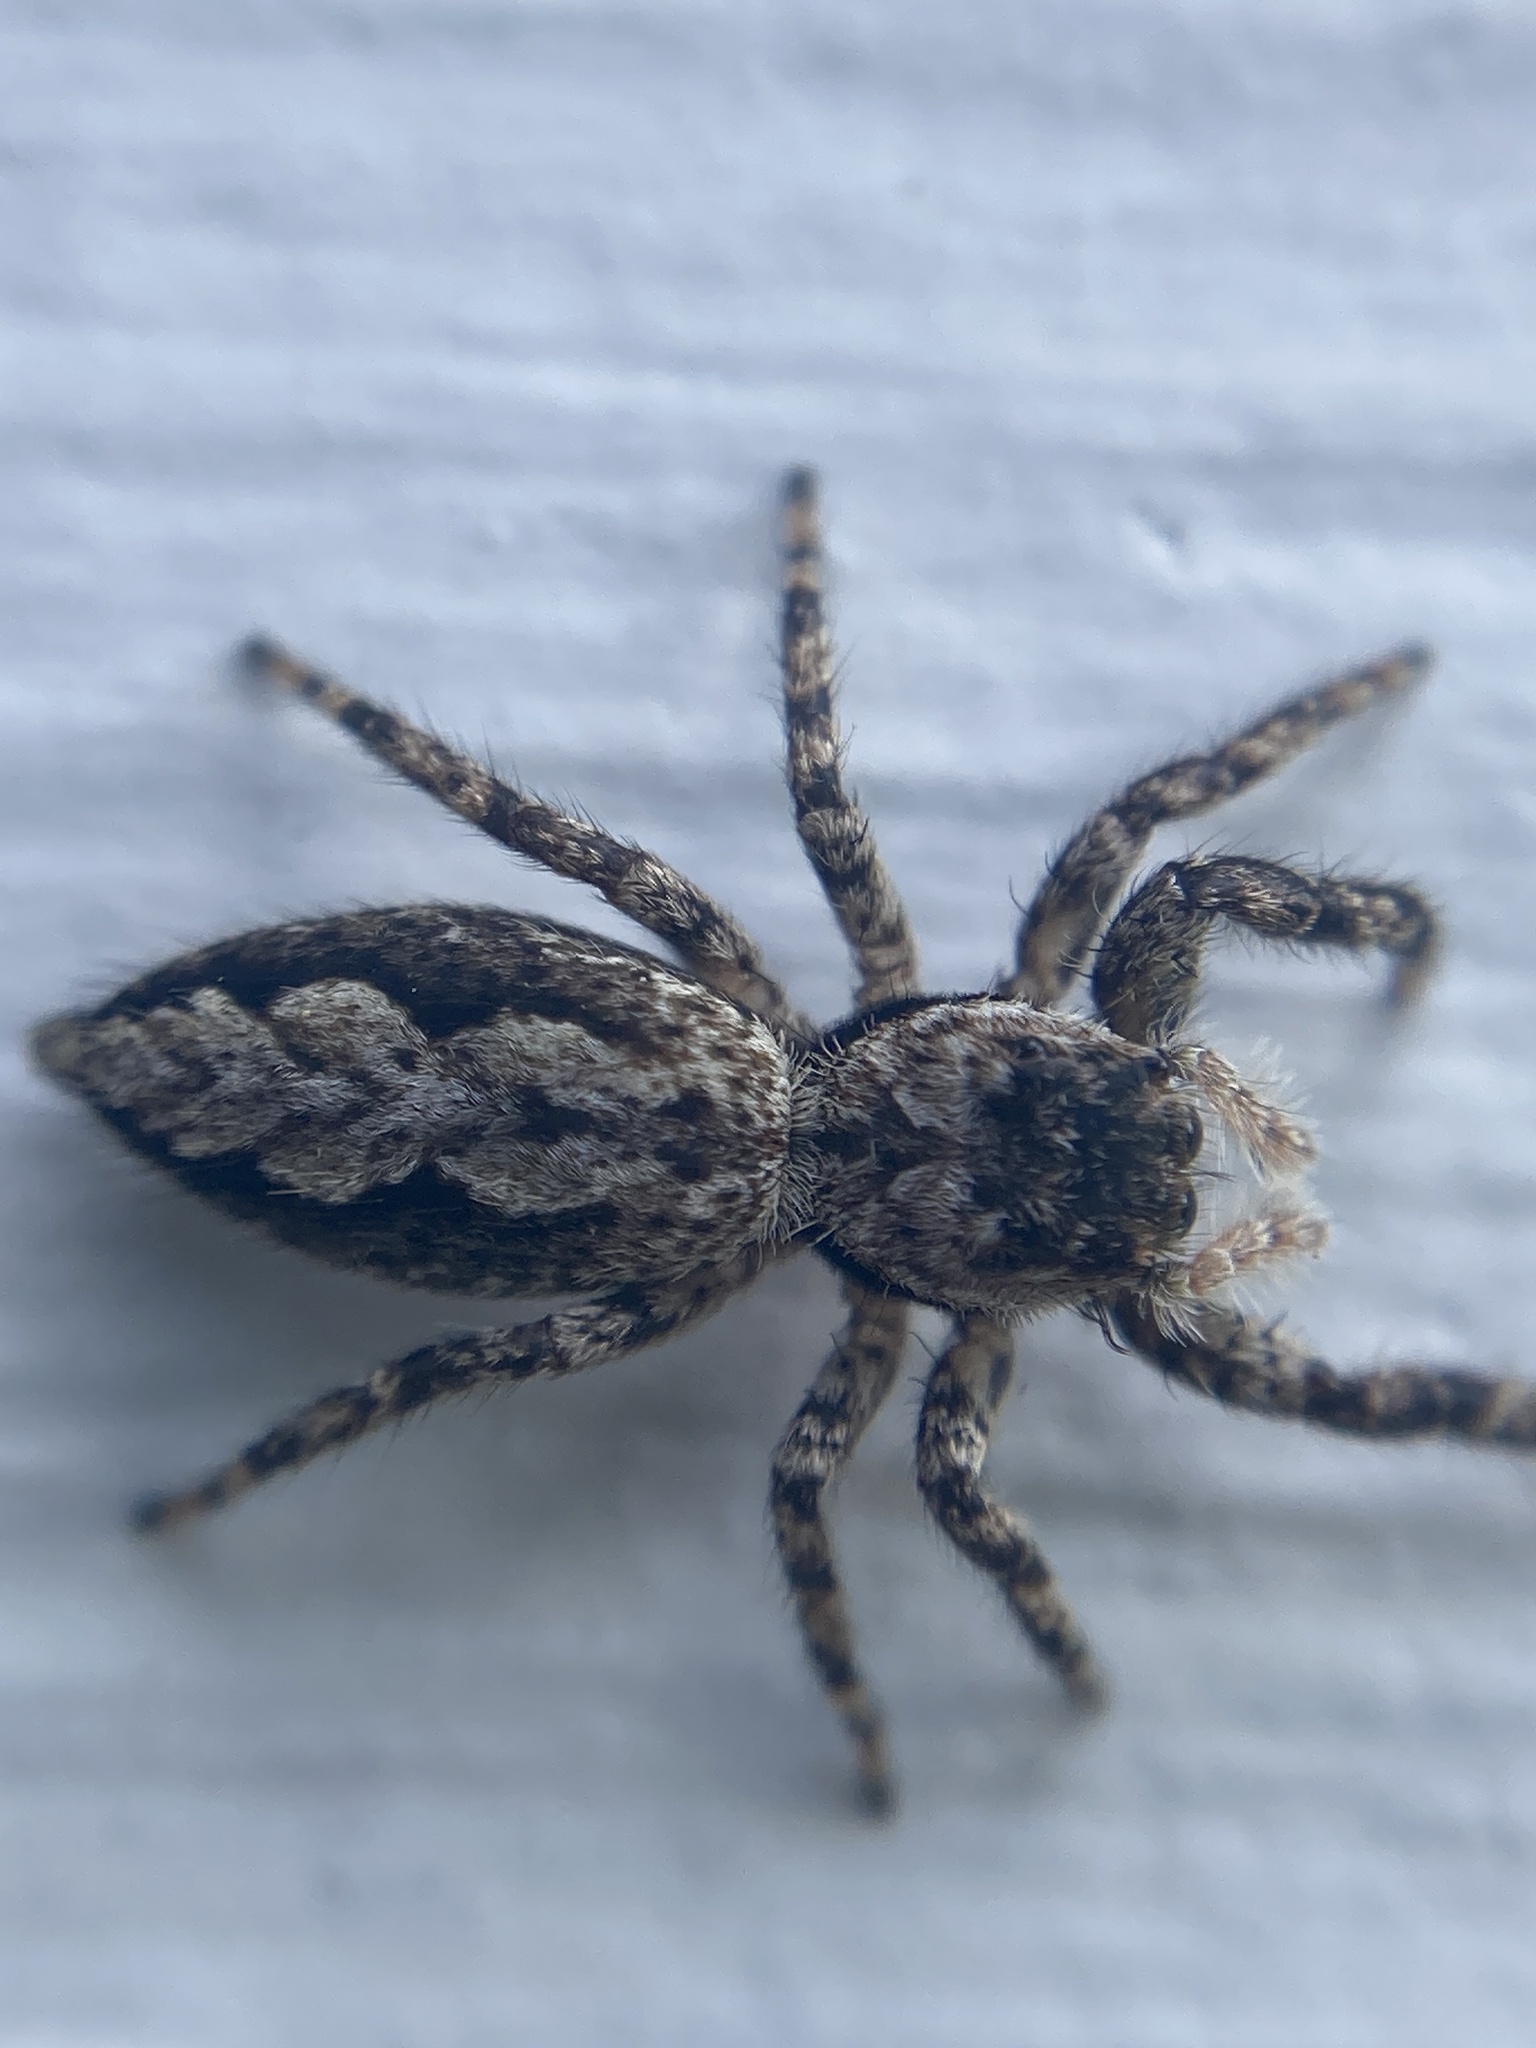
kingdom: Animalia
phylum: Arthropoda
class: Arachnida
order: Araneae
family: Salticidae
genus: Platycryptus
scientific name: Platycryptus undatus
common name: Tan jumping spider
